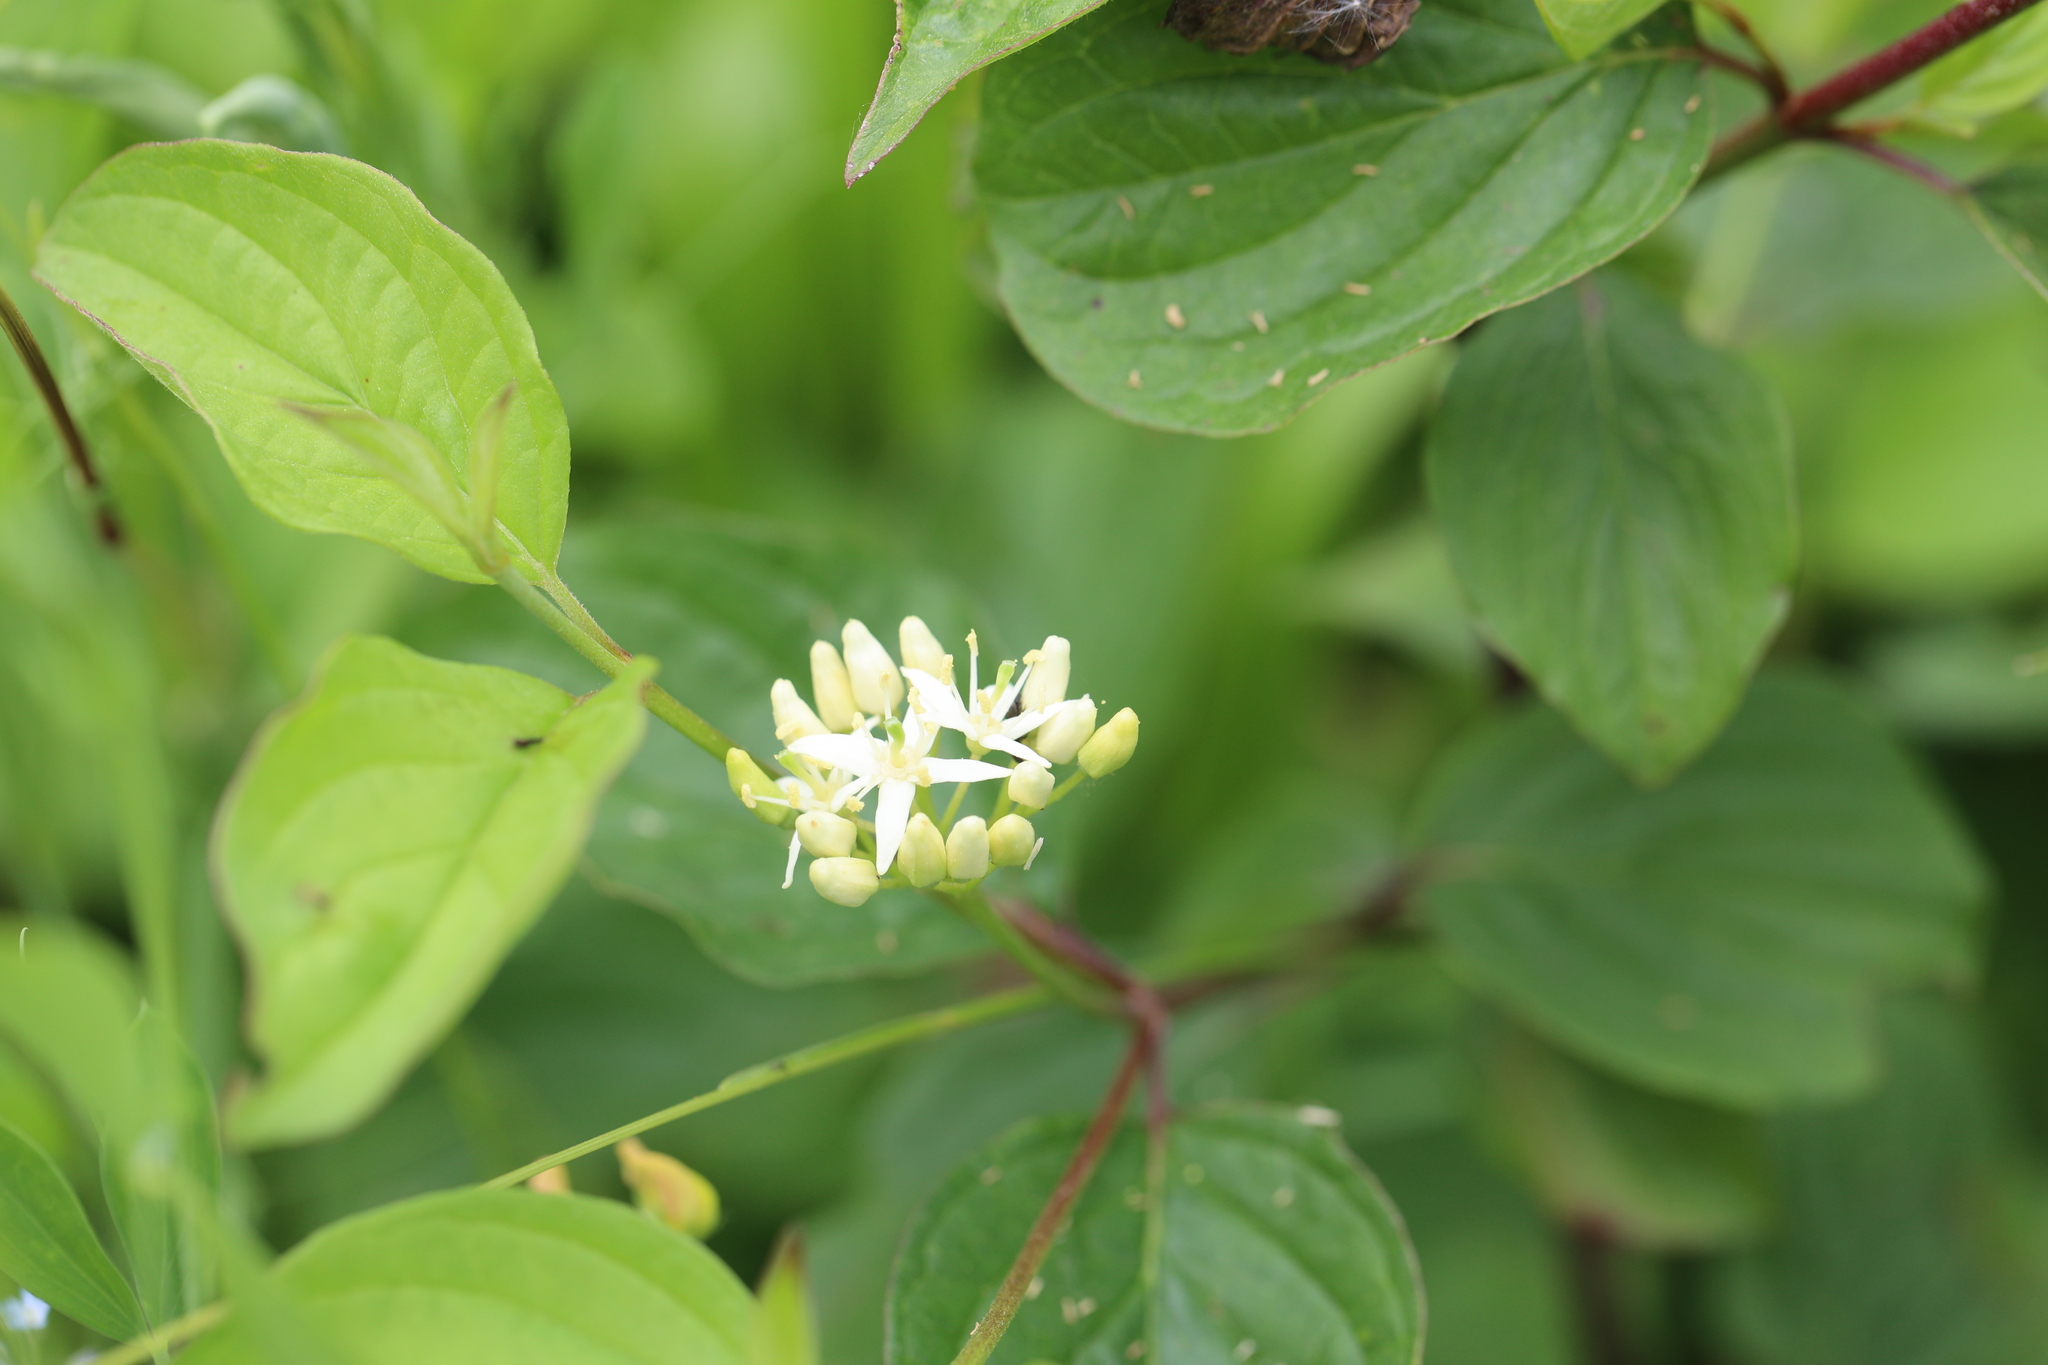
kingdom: Plantae
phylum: Tracheophyta
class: Magnoliopsida
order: Cornales
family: Cornaceae
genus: Cornus
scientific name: Cornus sanguinea
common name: Dogwood
